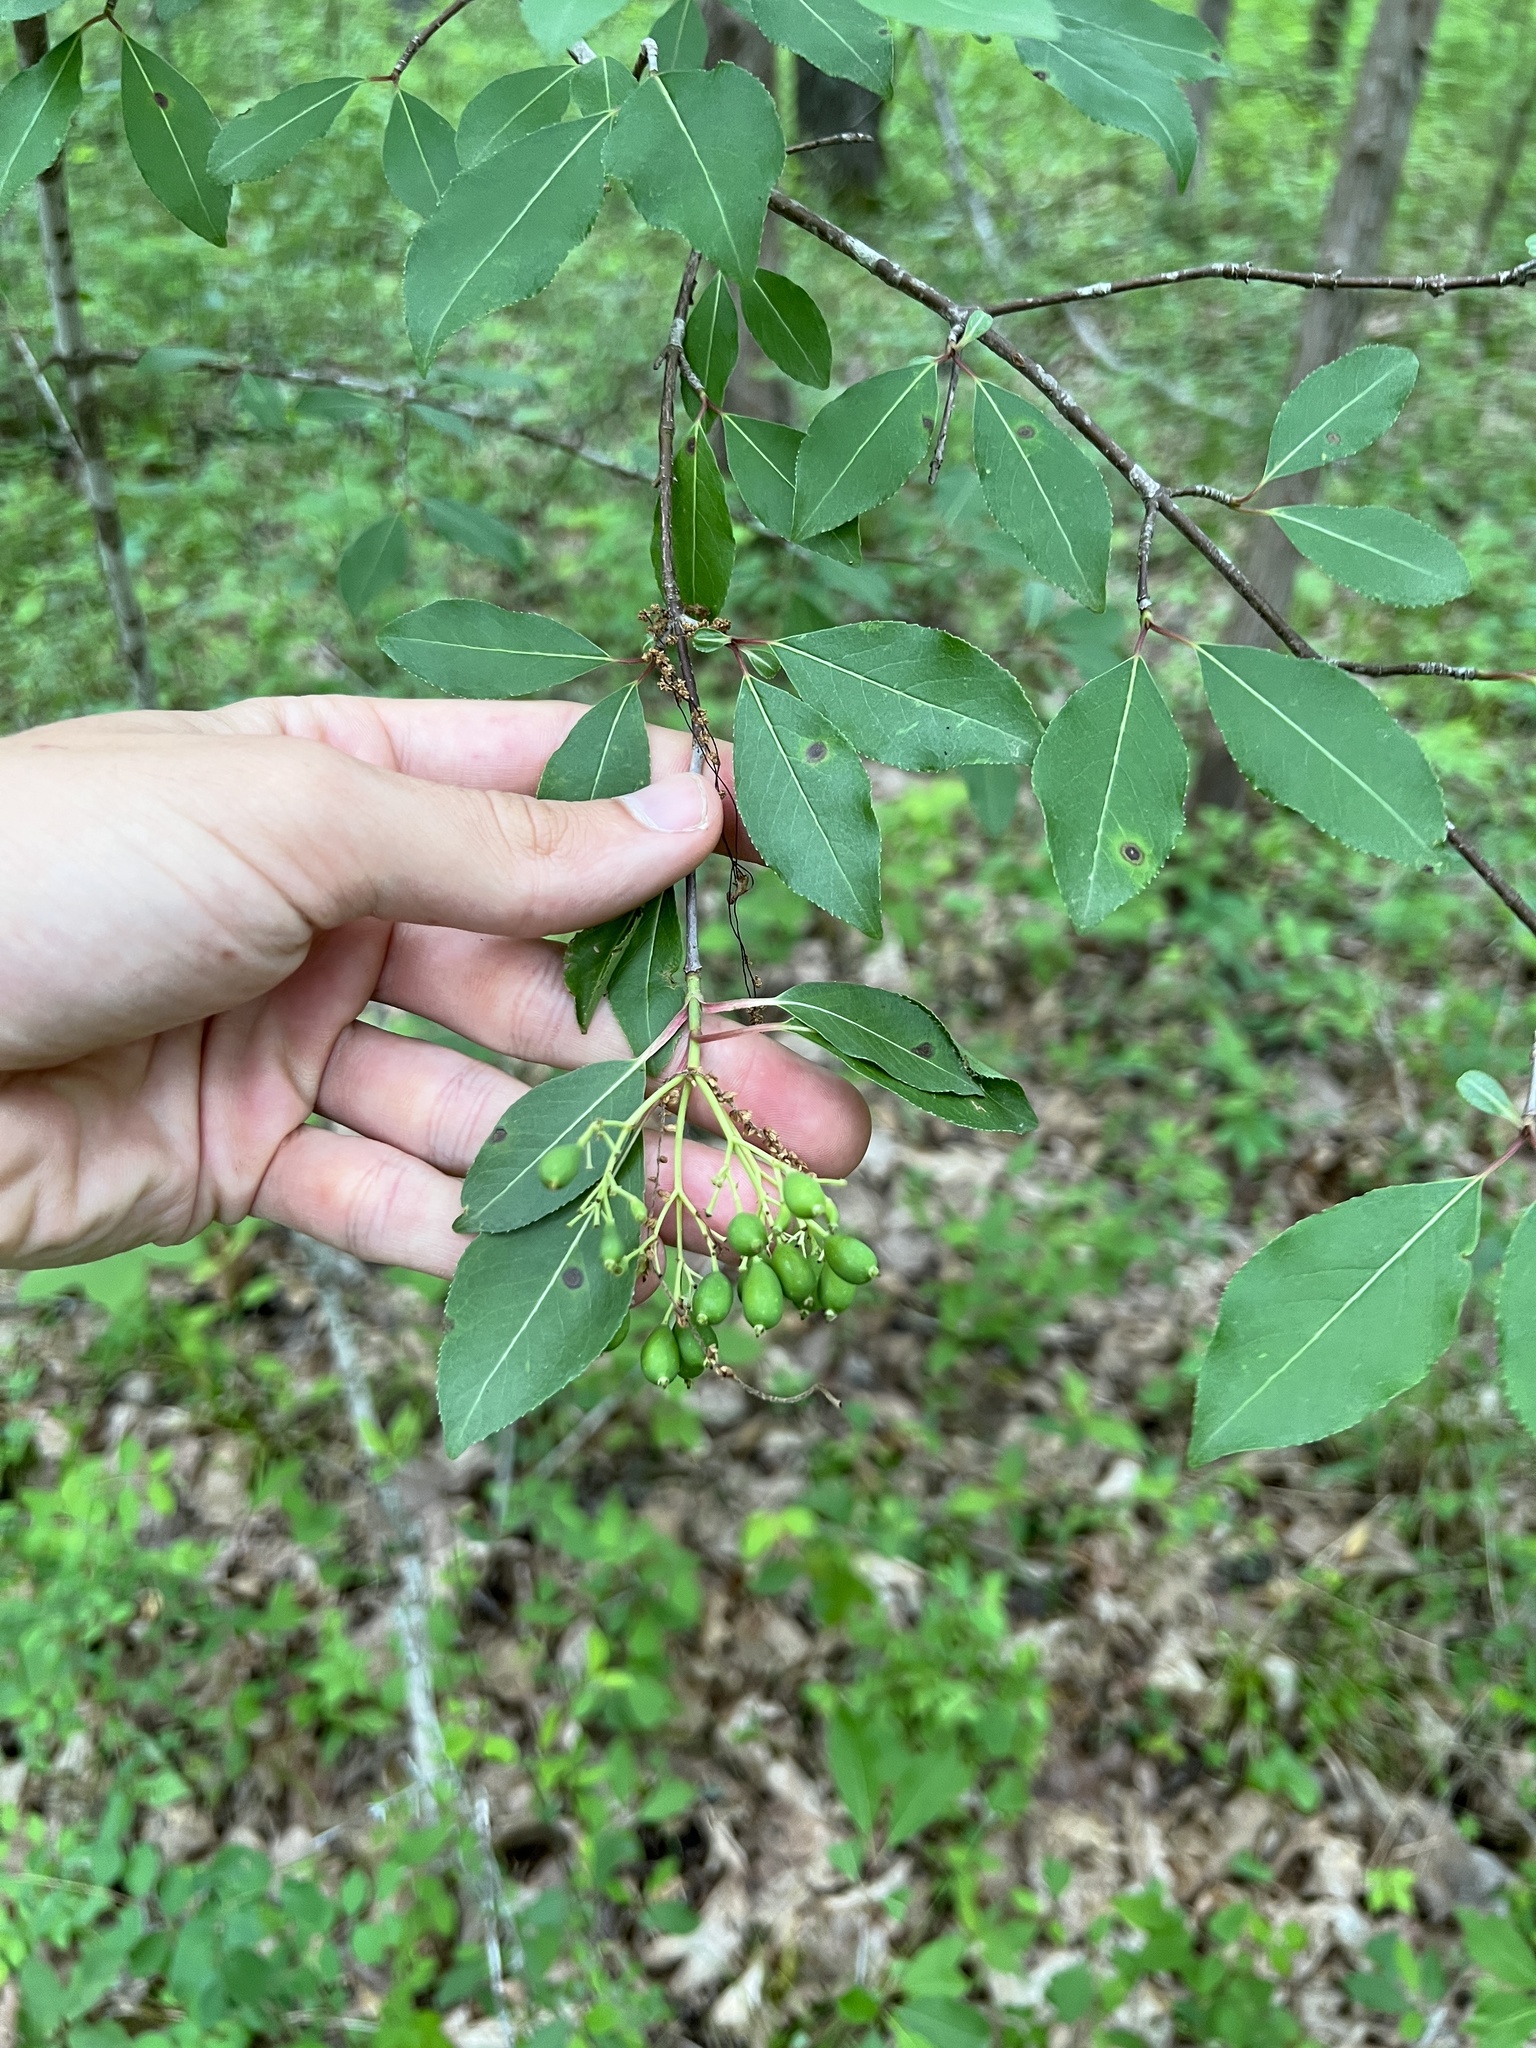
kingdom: Plantae
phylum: Tracheophyta
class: Magnoliopsida
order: Dipsacales
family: Viburnaceae
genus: Viburnum
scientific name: Viburnum prunifolium
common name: Black haw
